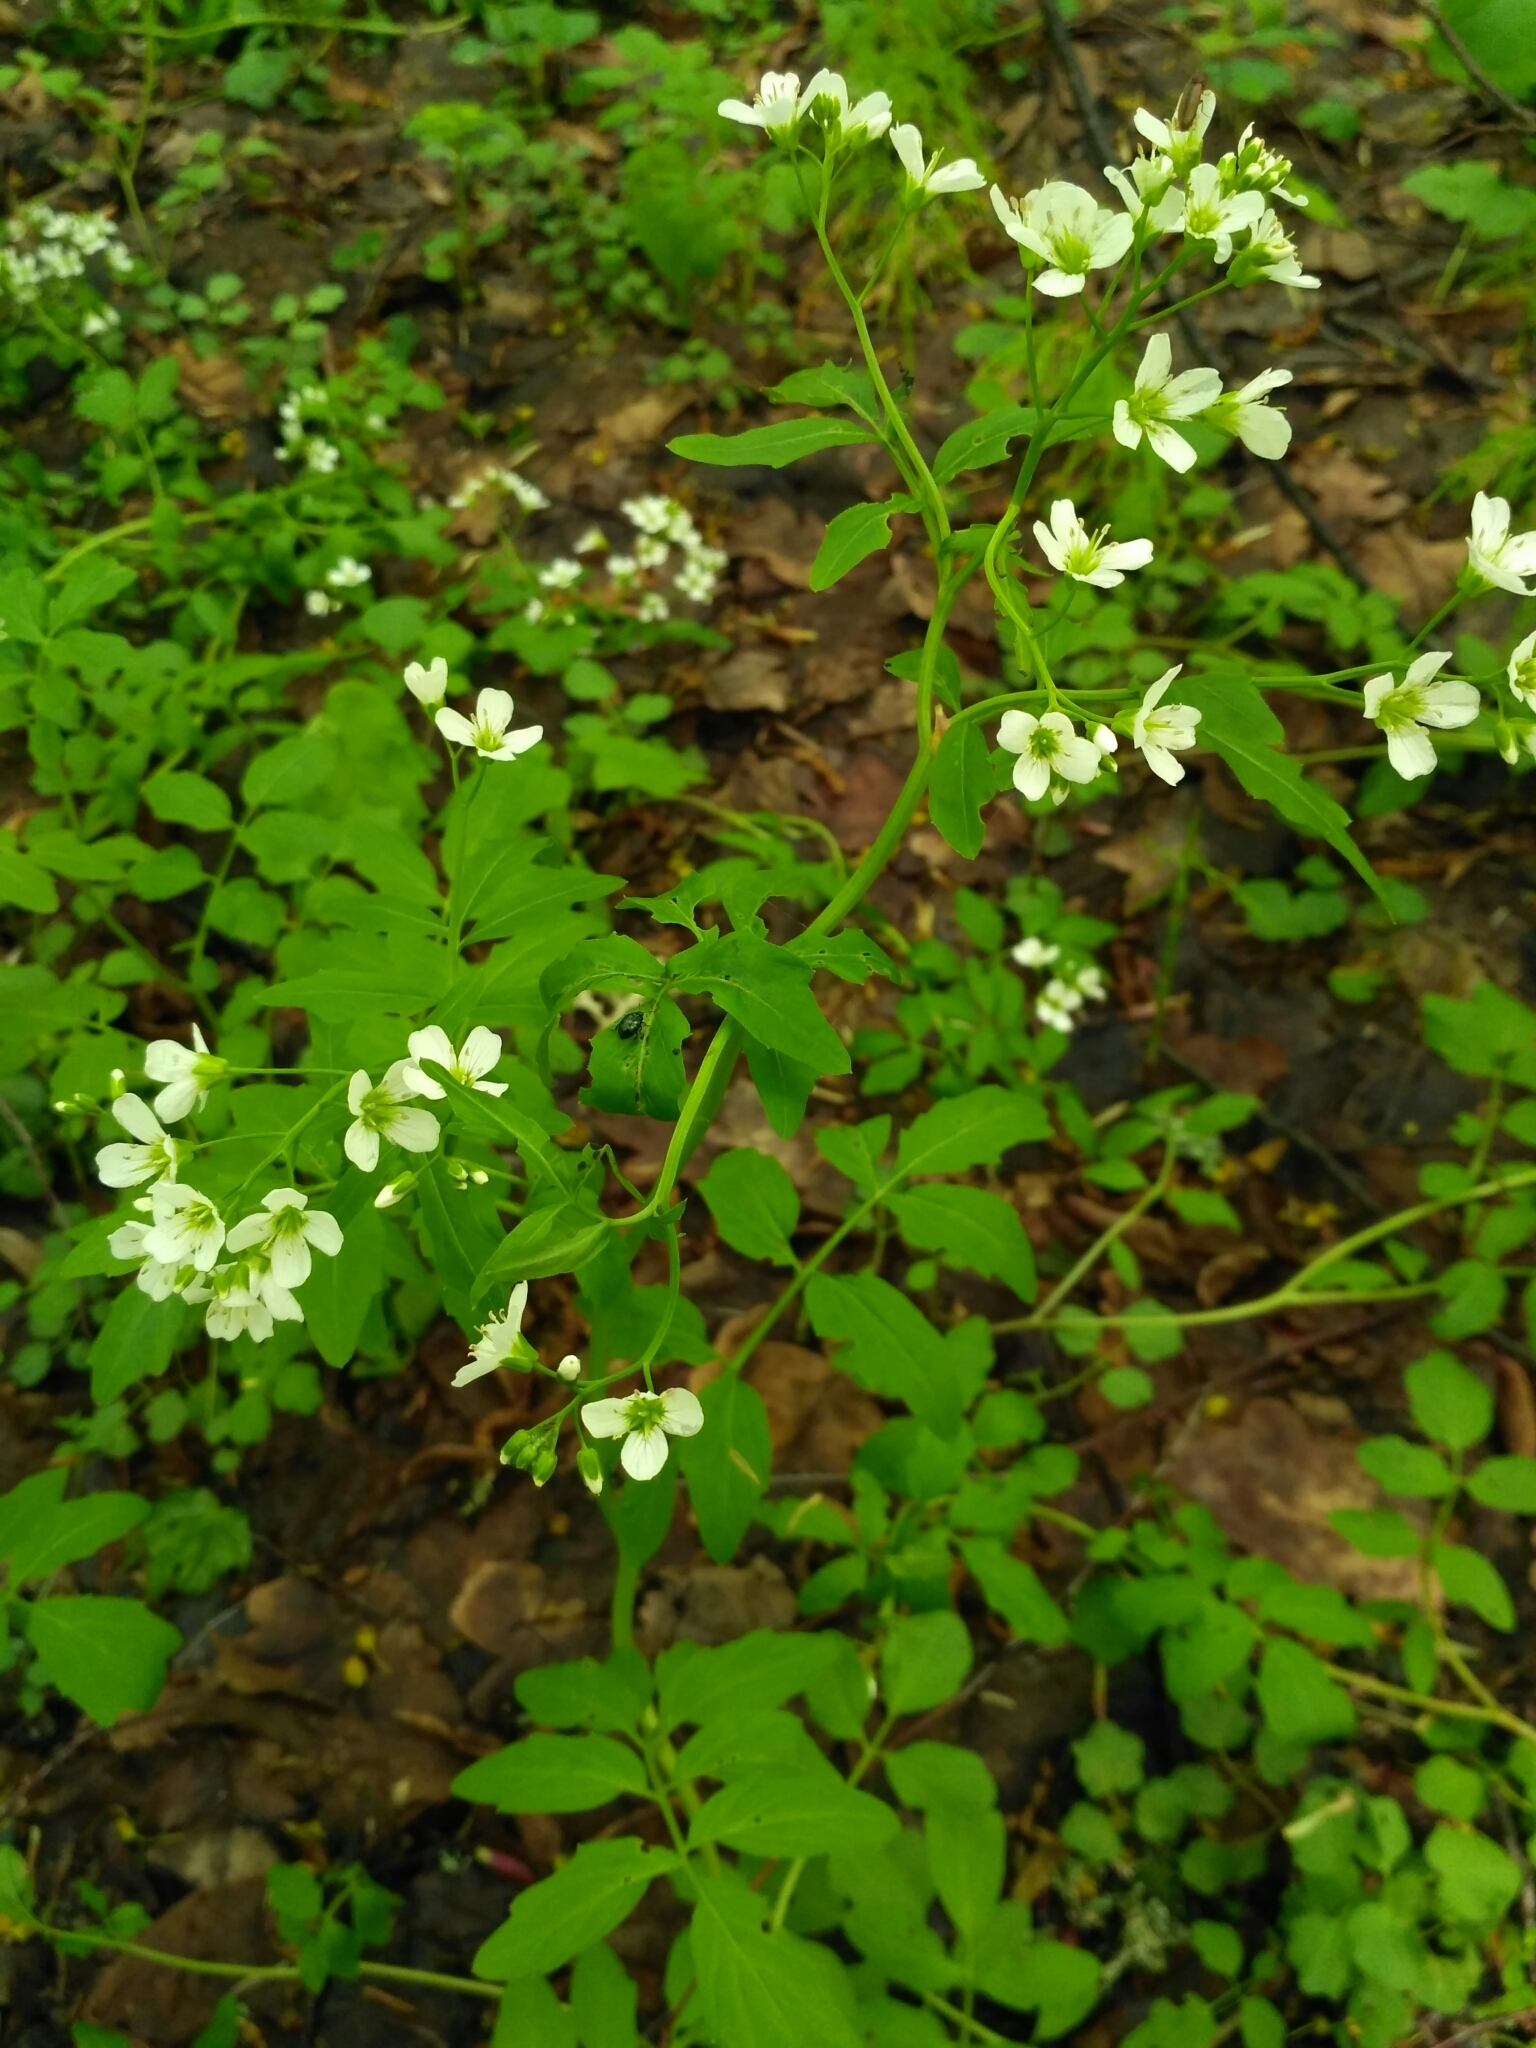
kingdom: Plantae
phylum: Tracheophyta
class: Magnoliopsida
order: Brassicales
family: Brassicaceae
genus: Cardamine
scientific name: Cardamine amara
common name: Large bitter-cress
